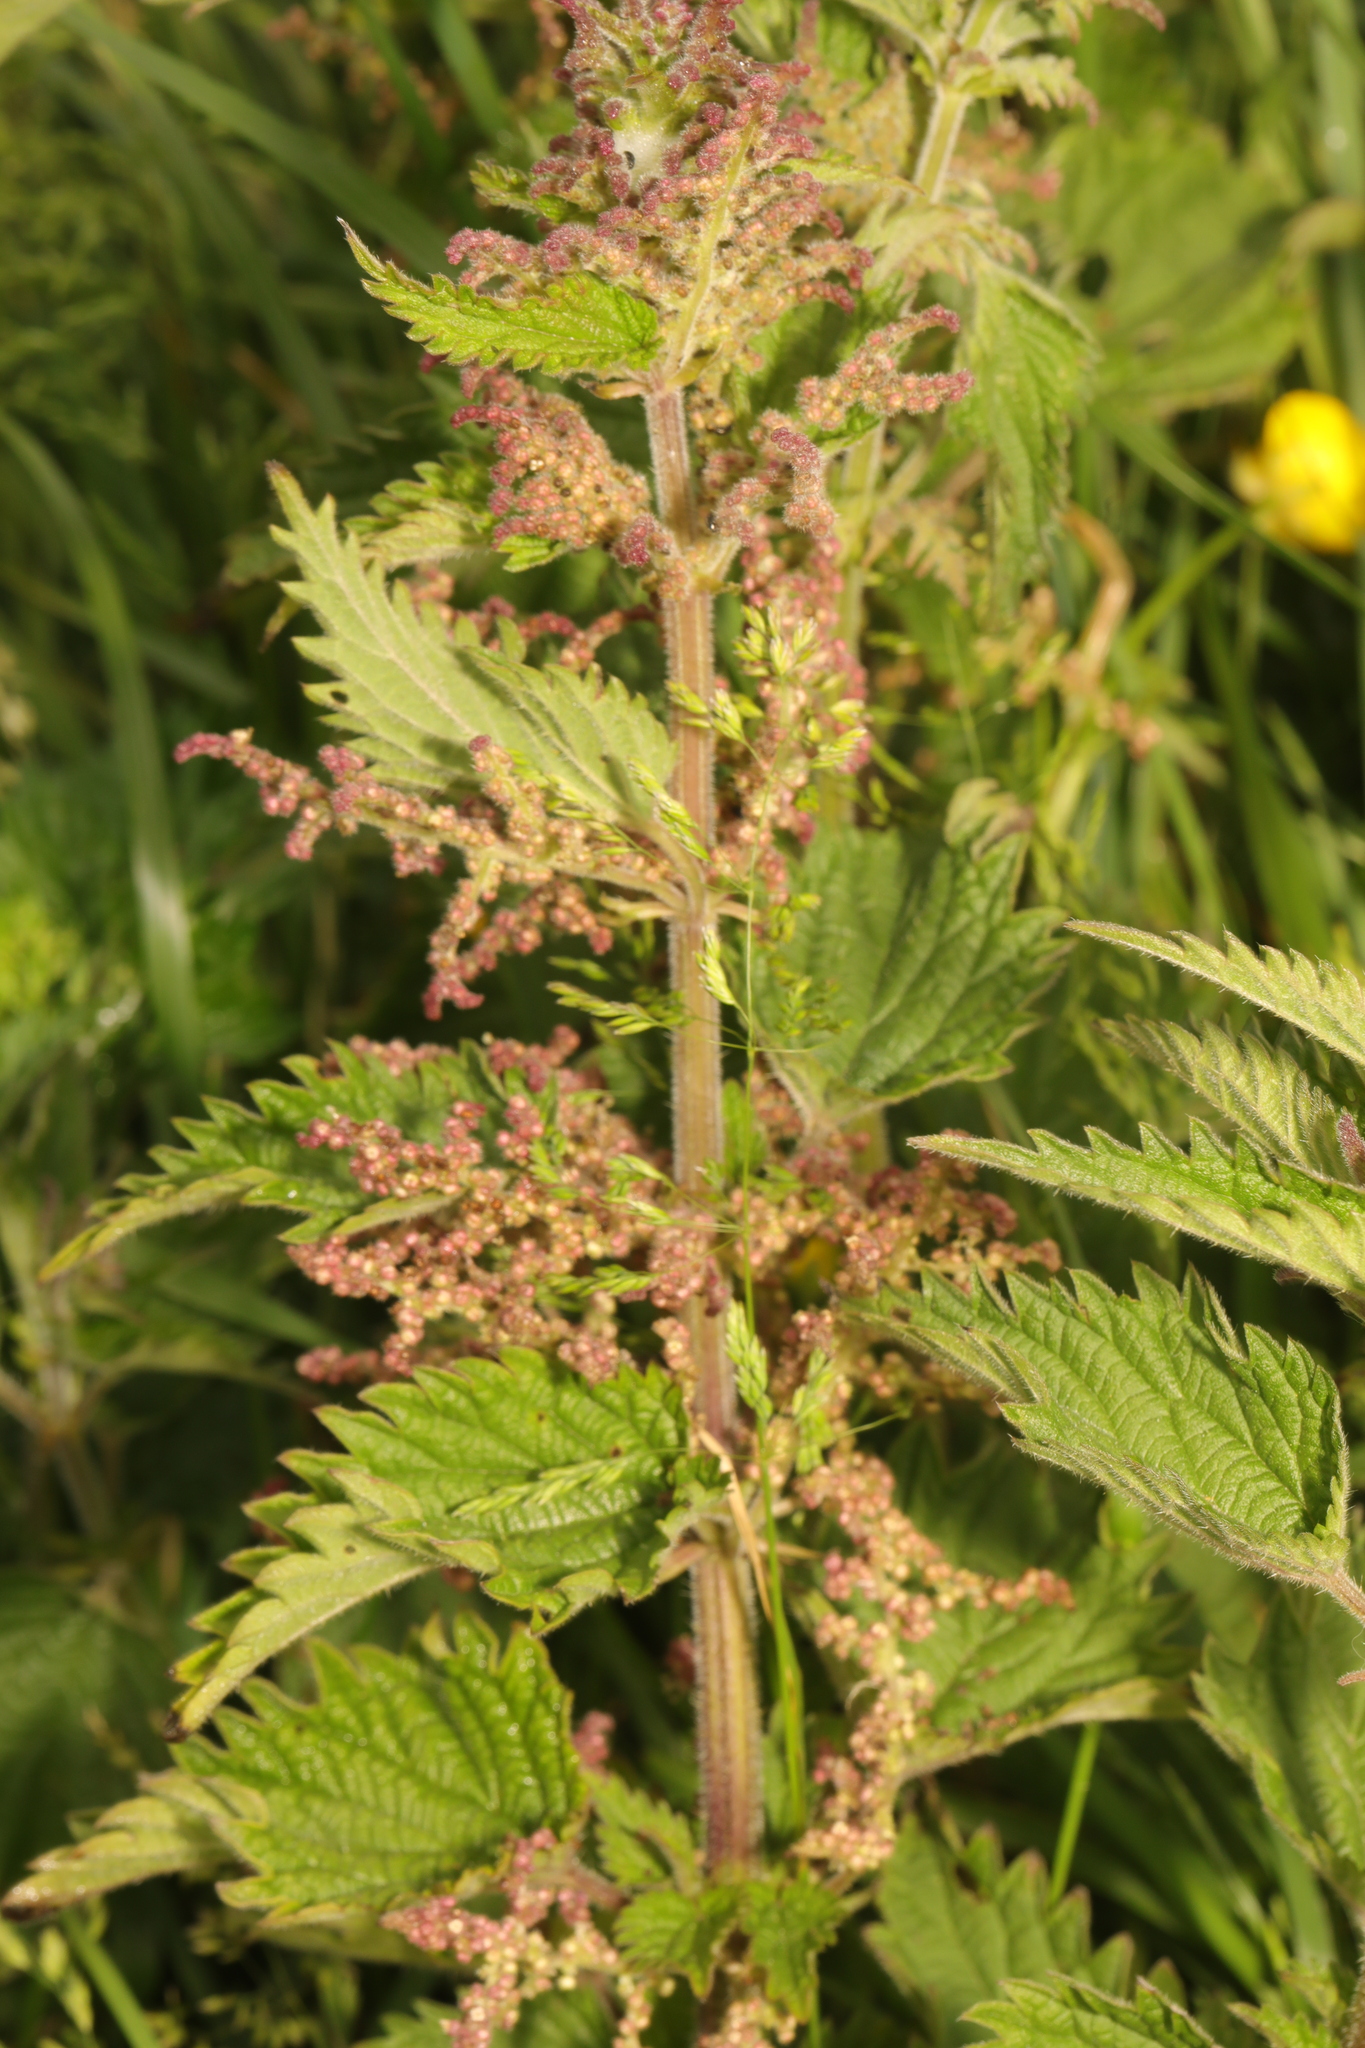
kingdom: Plantae
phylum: Tracheophyta
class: Magnoliopsida
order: Rosales
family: Urticaceae
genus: Urtica
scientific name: Urtica dioica
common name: Common nettle
